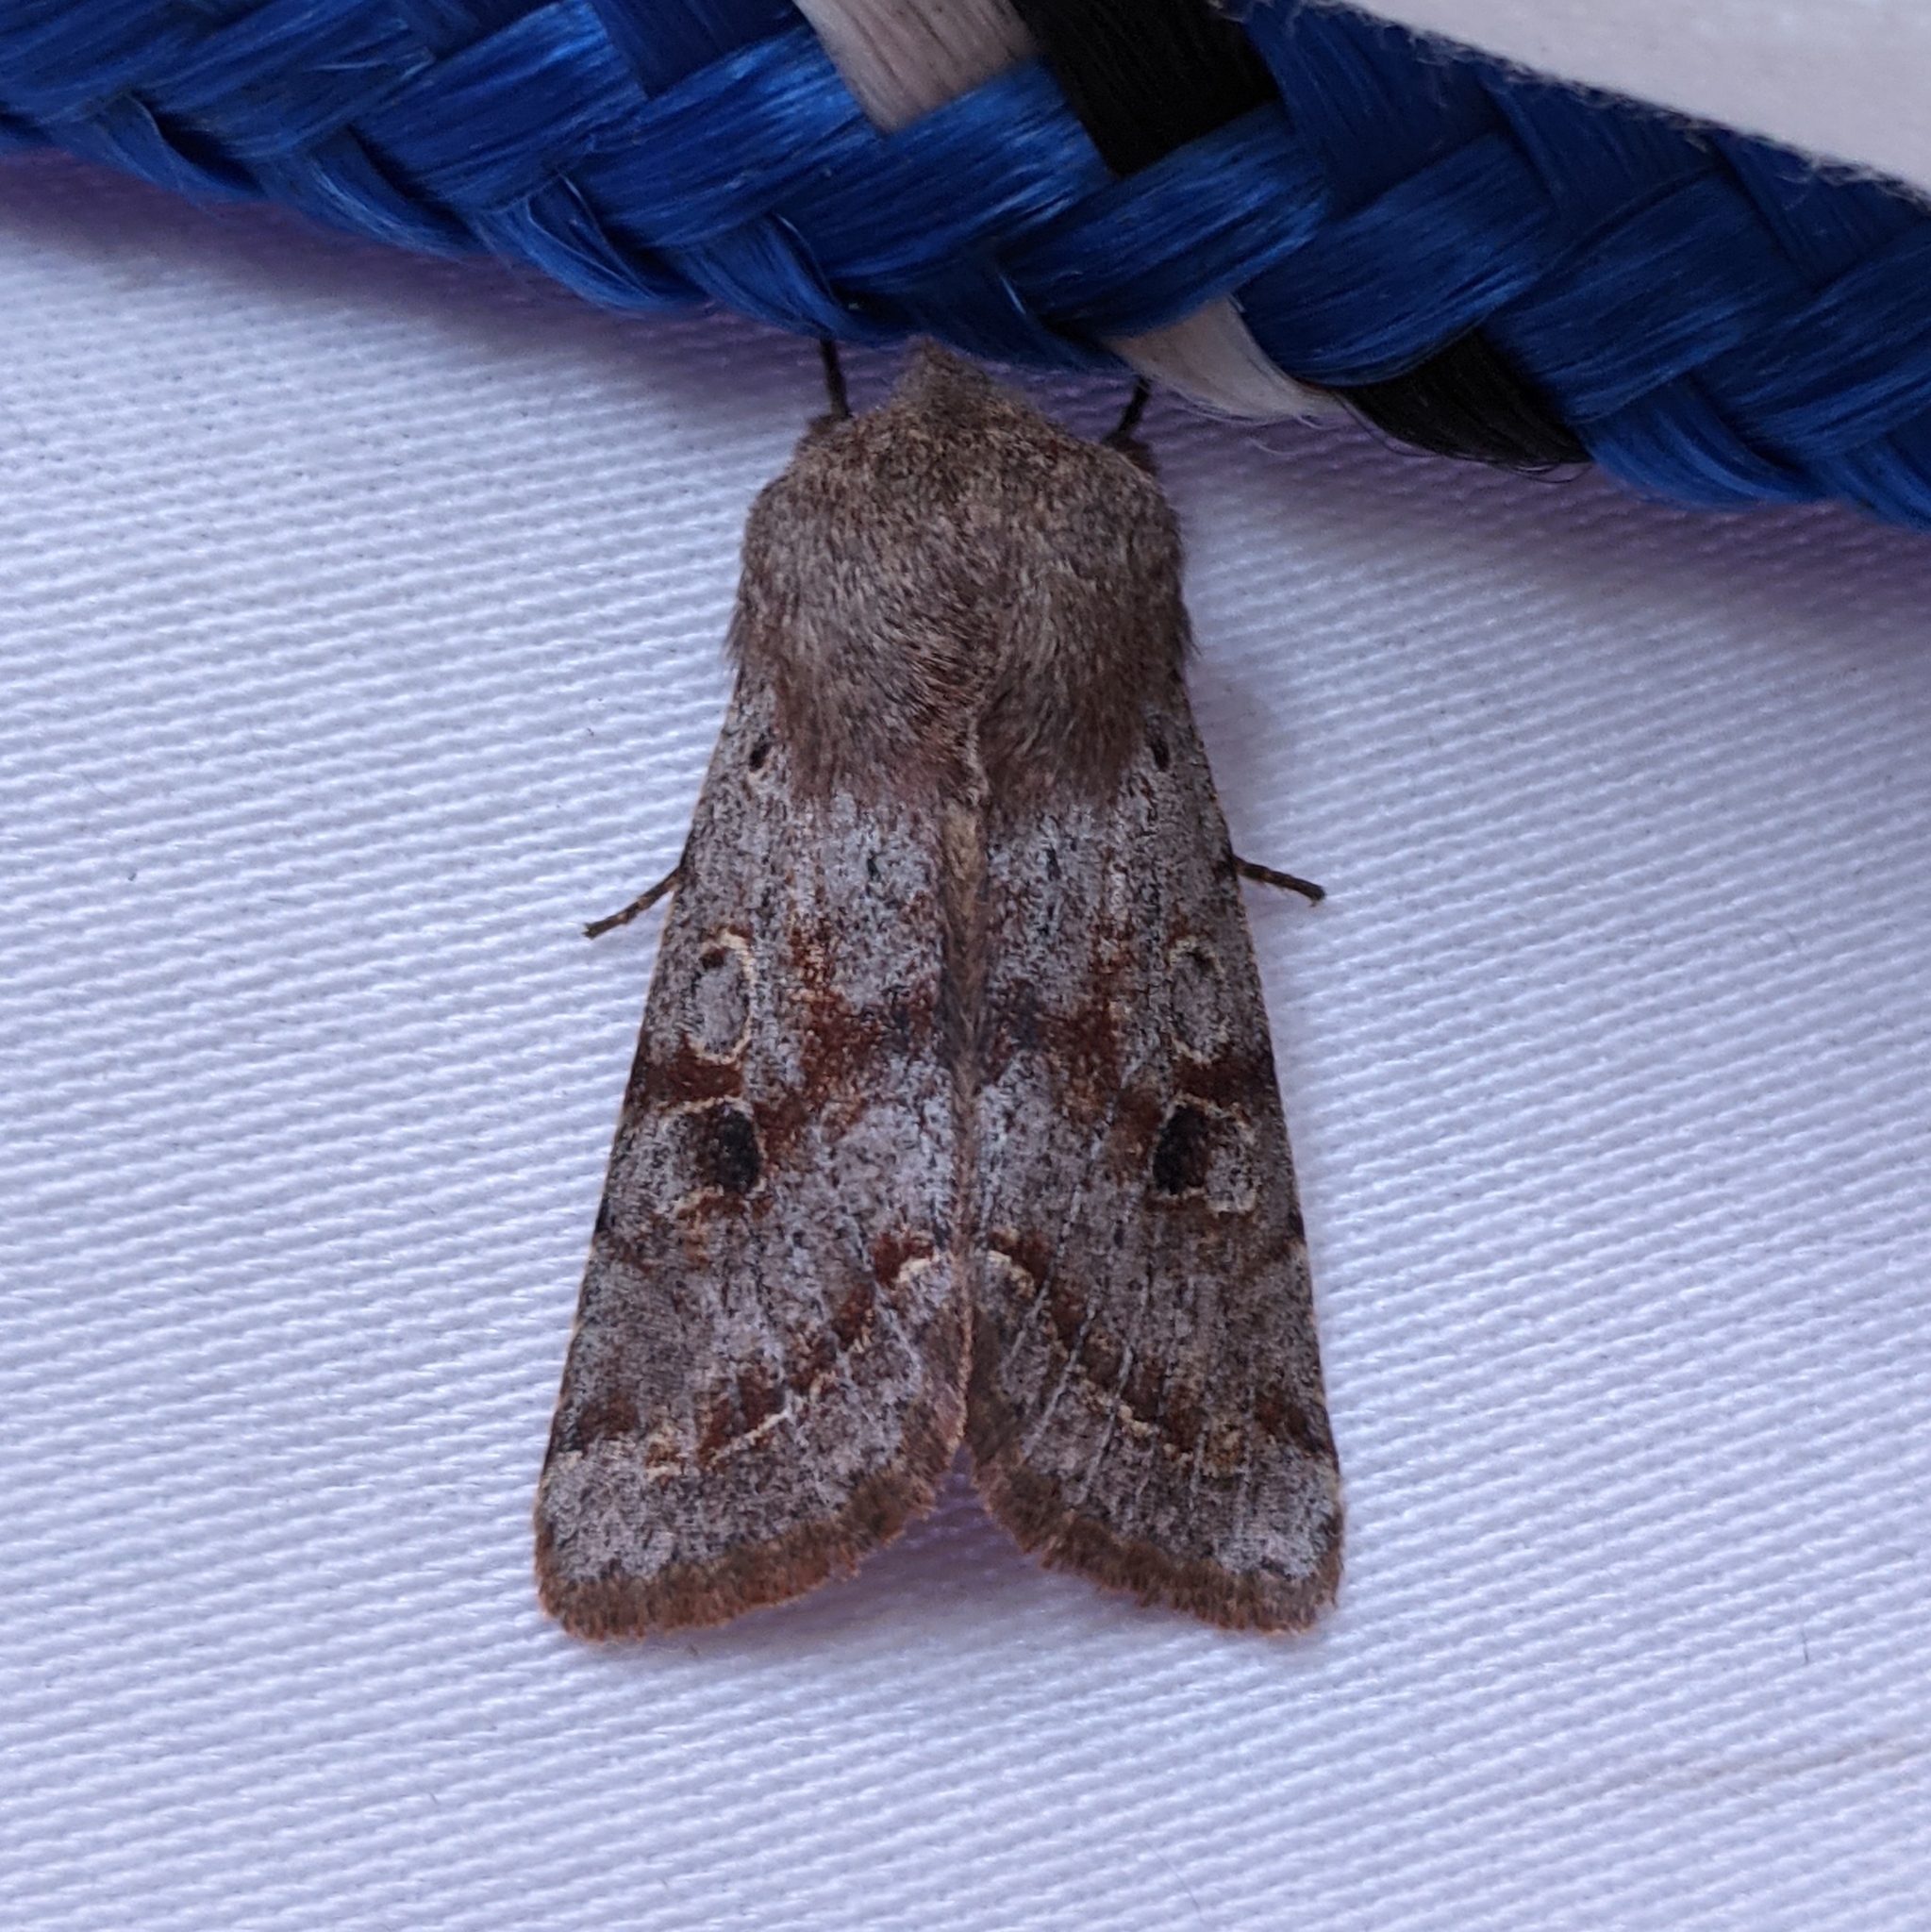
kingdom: Animalia
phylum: Arthropoda
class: Insecta
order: Lepidoptera
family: Noctuidae
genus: Orthosia
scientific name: Orthosia hibisci
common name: Green fruitworm
